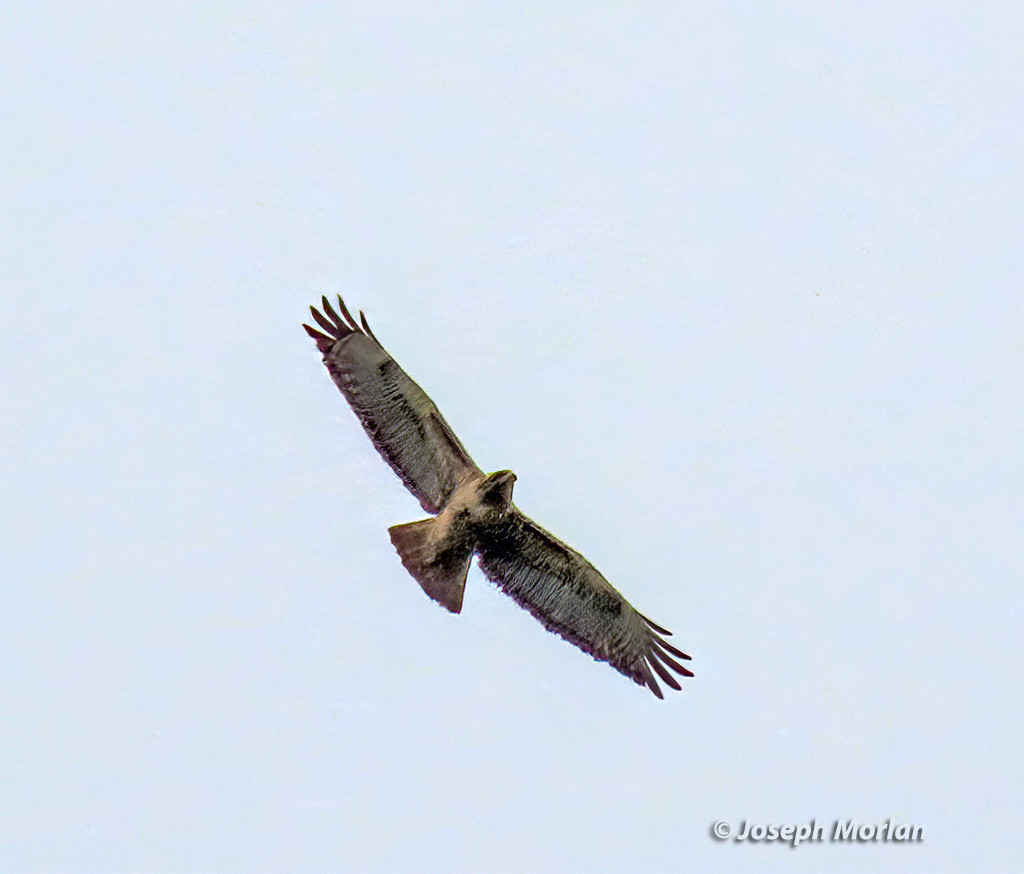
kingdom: Animalia
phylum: Chordata
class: Aves
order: Accipitriformes
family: Accipitridae
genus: Buteo
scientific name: Buteo jamaicensis
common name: Red-tailed hawk
